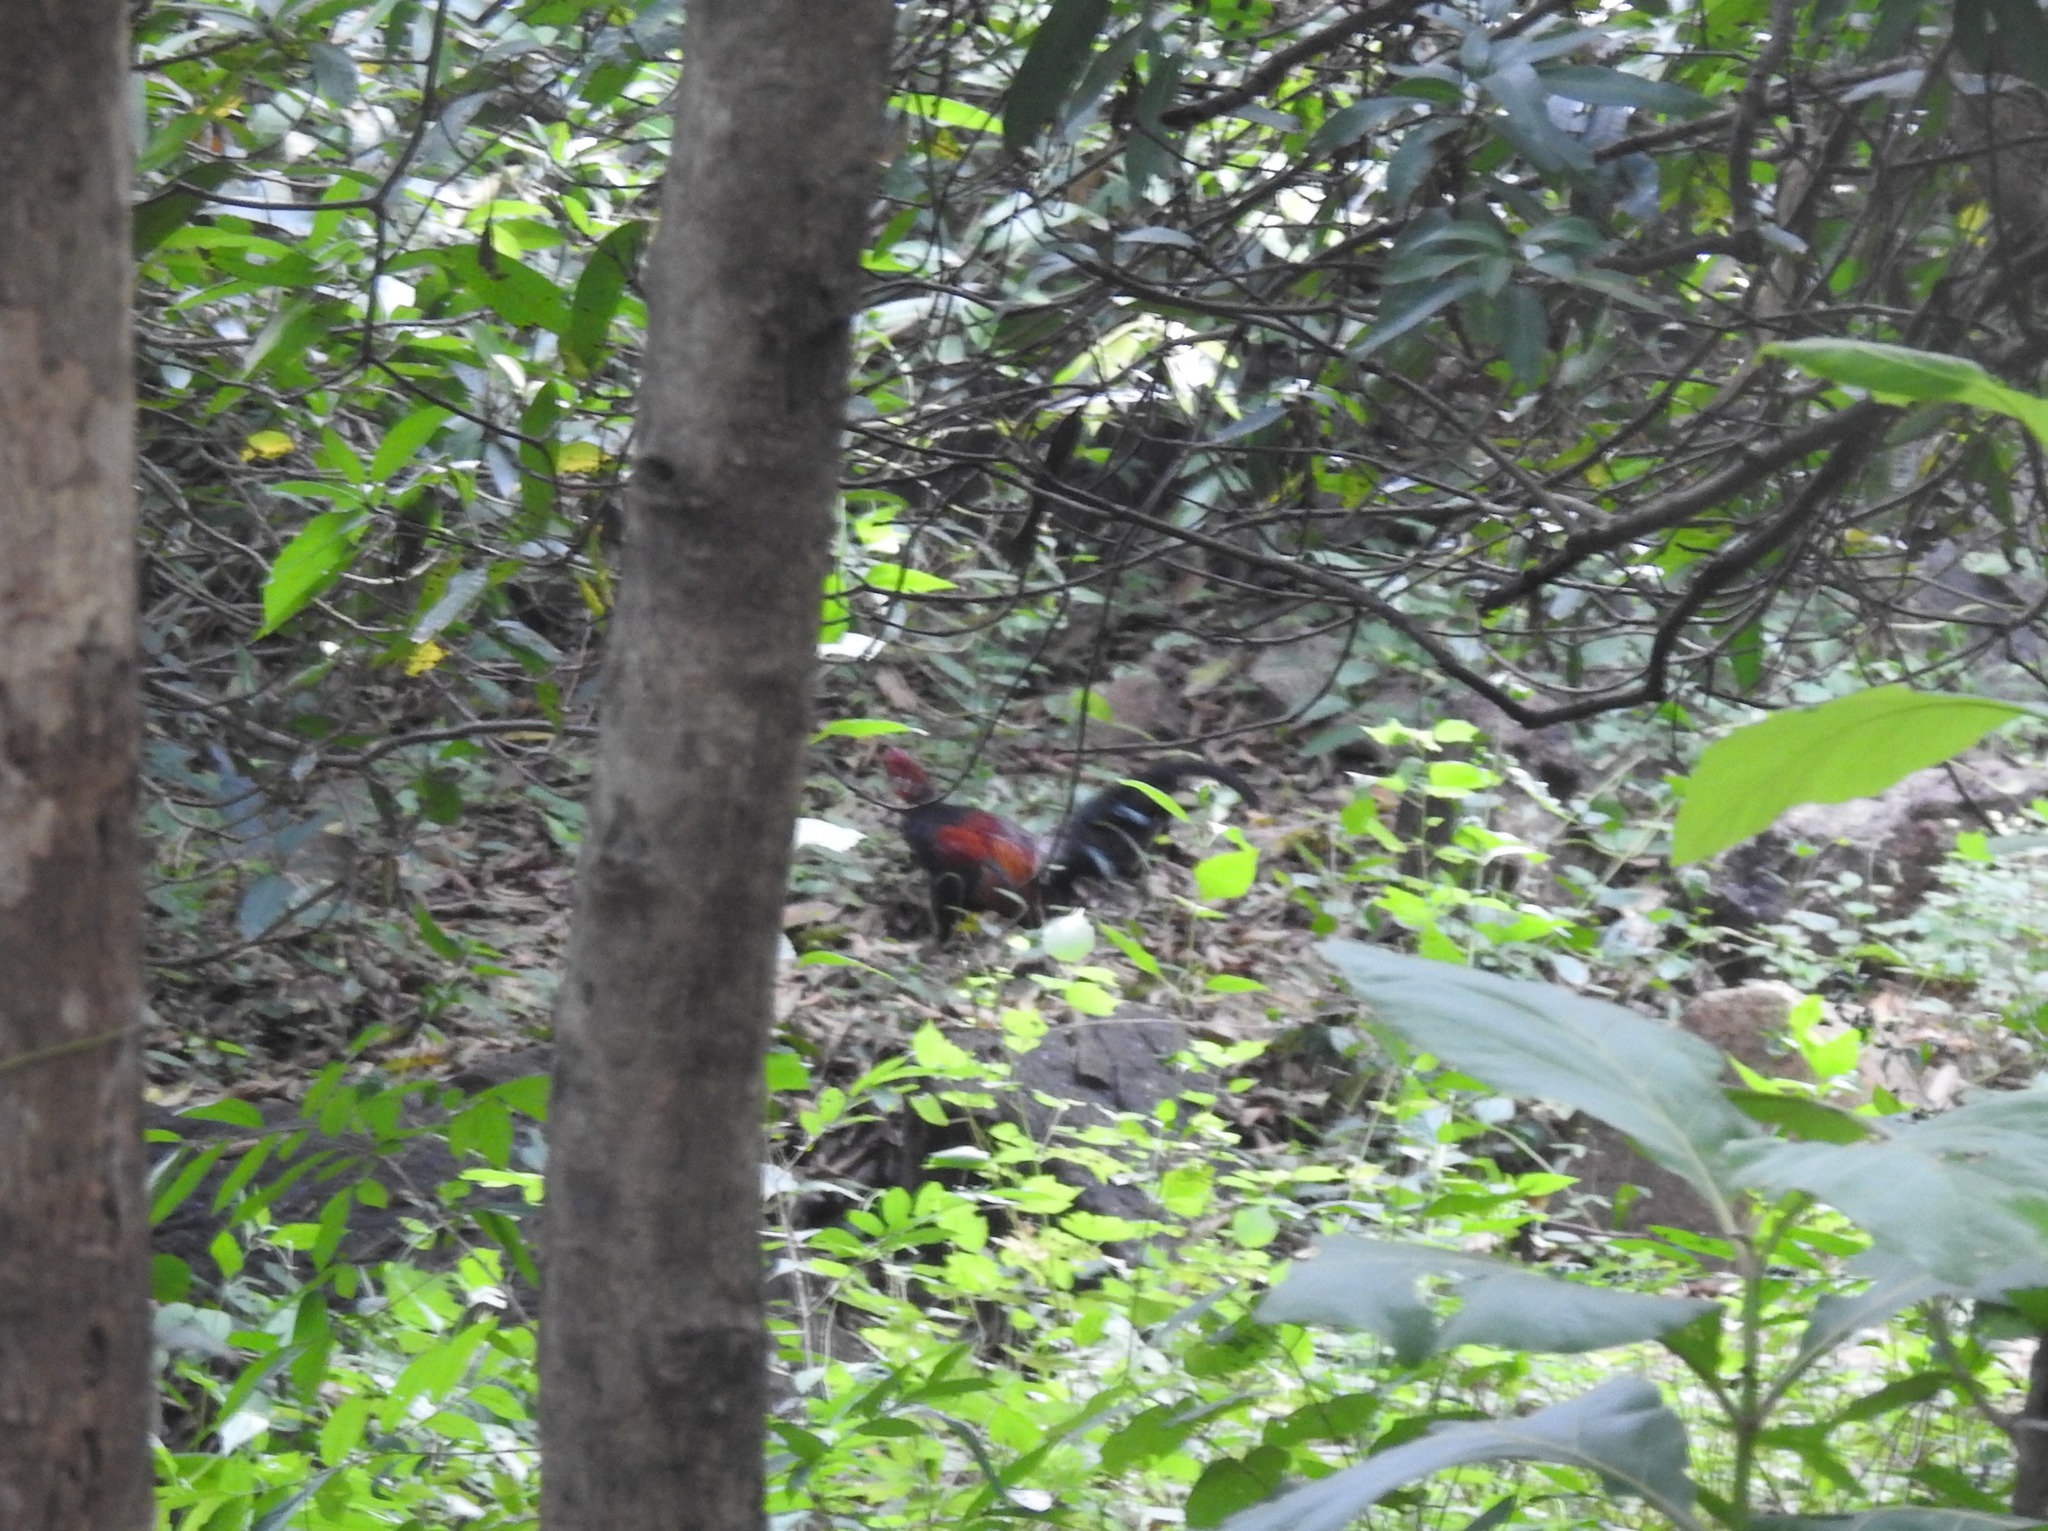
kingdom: Animalia
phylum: Chordata
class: Aves
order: Galliformes
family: Phasianidae
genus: Gallus
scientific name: Gallus gallus
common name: Red junglefowl
